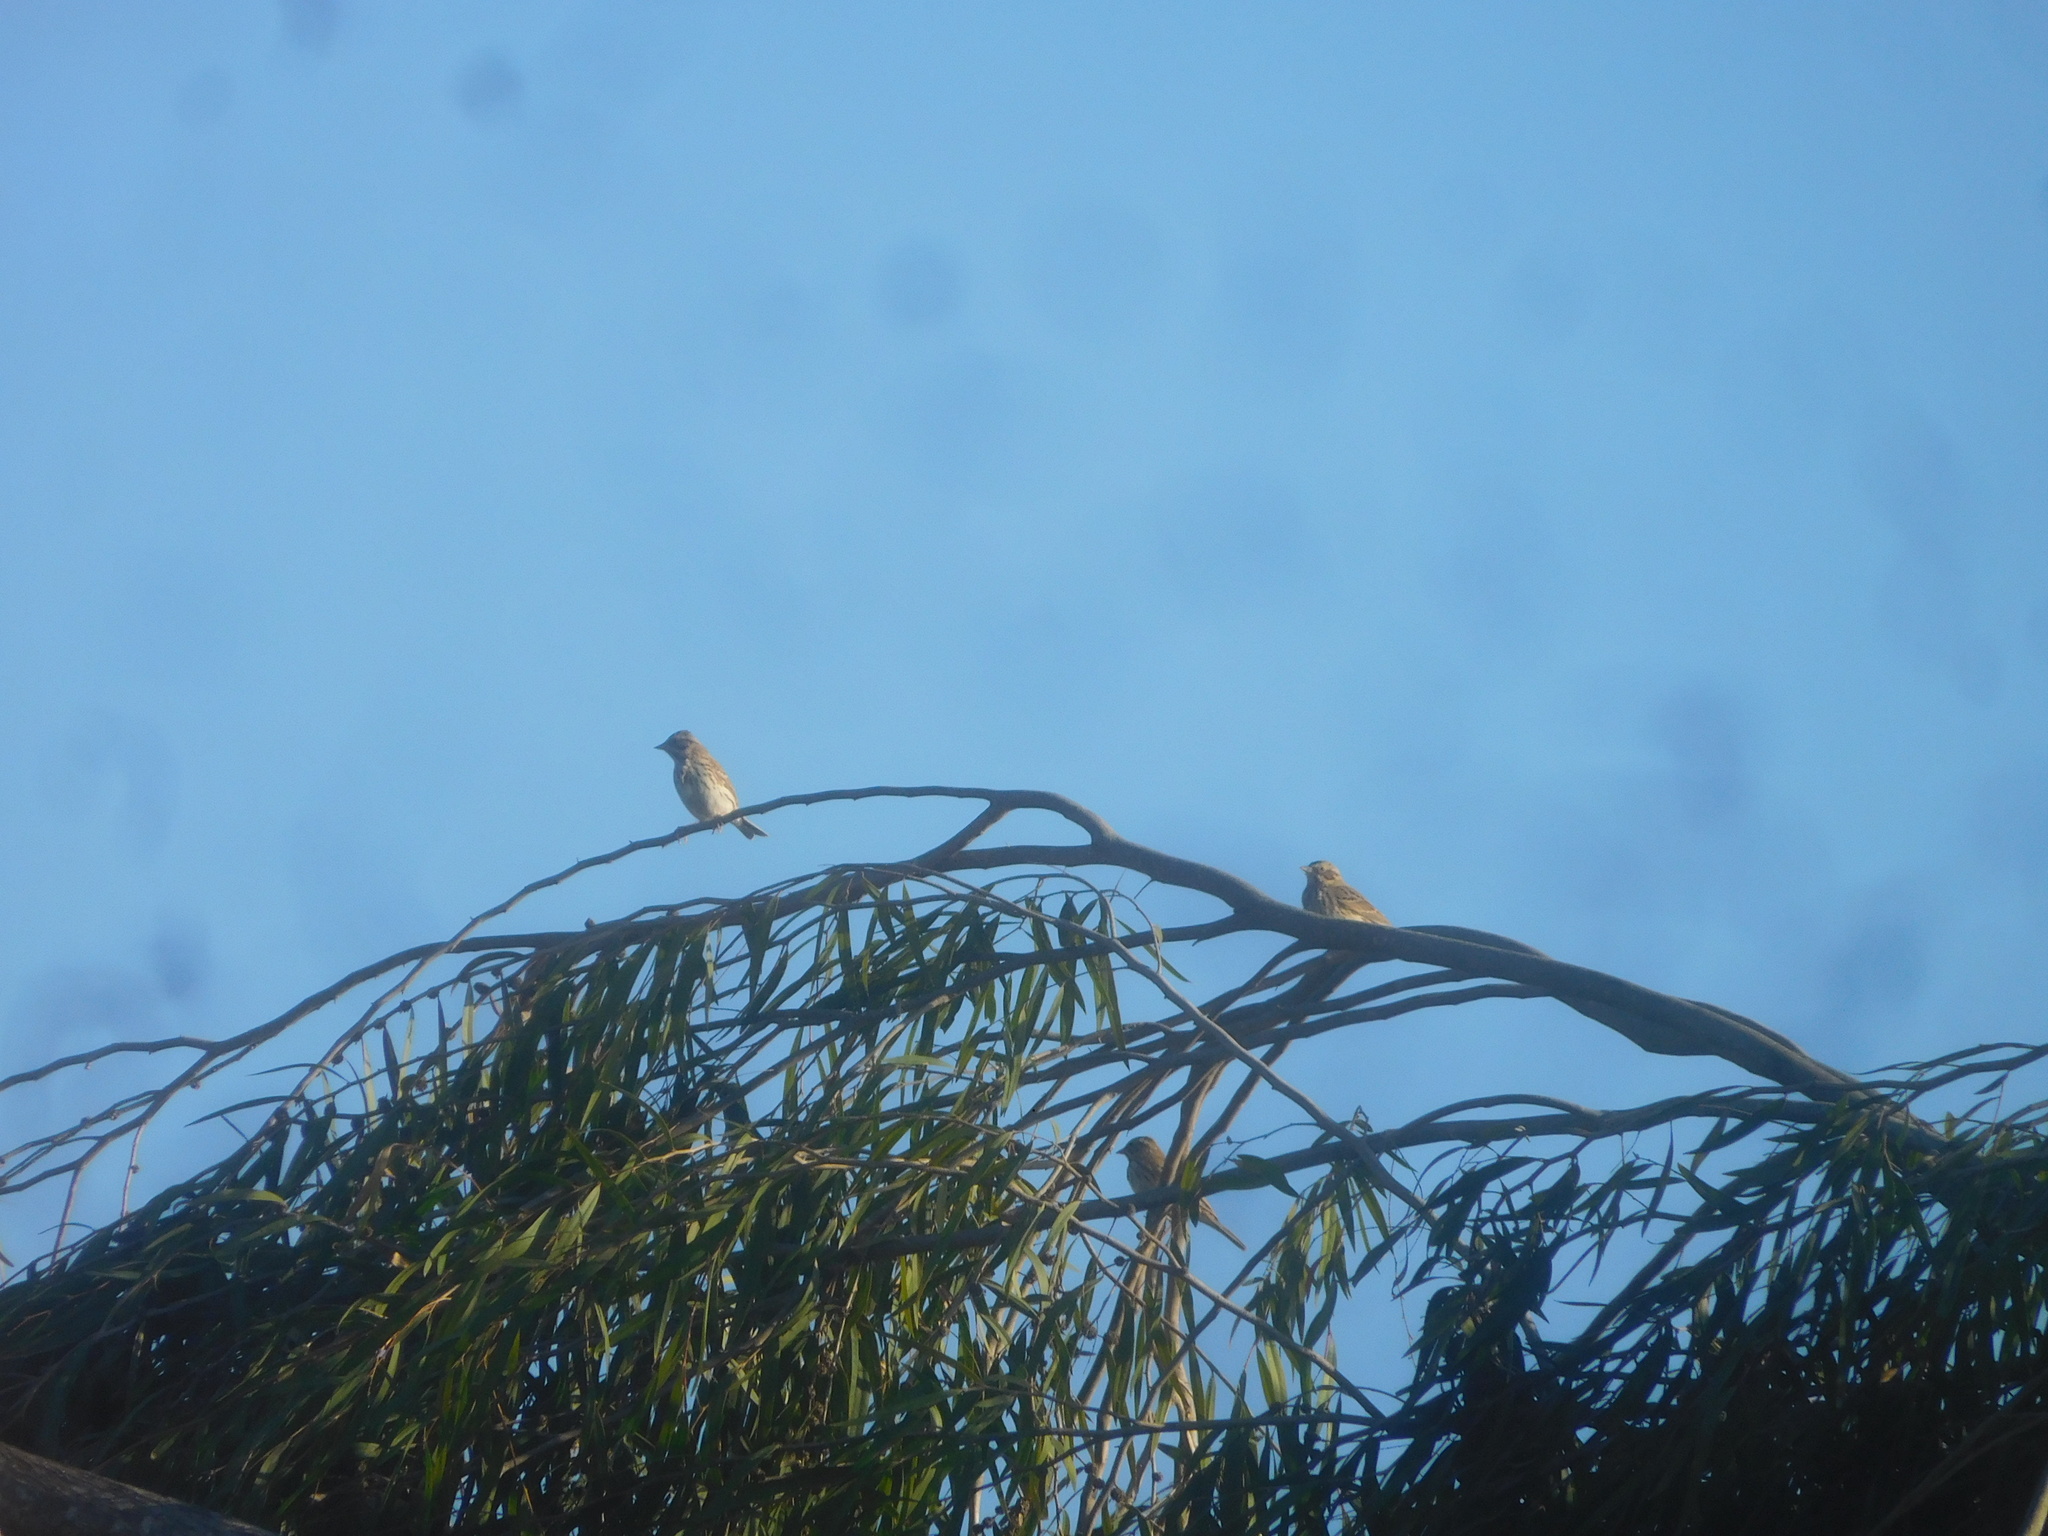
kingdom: Animalia
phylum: Chordata
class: Aves
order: Passeriformes
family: Passerellidae
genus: Passerculus
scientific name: Passerculus sandwichensis
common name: Savannah sparrow
